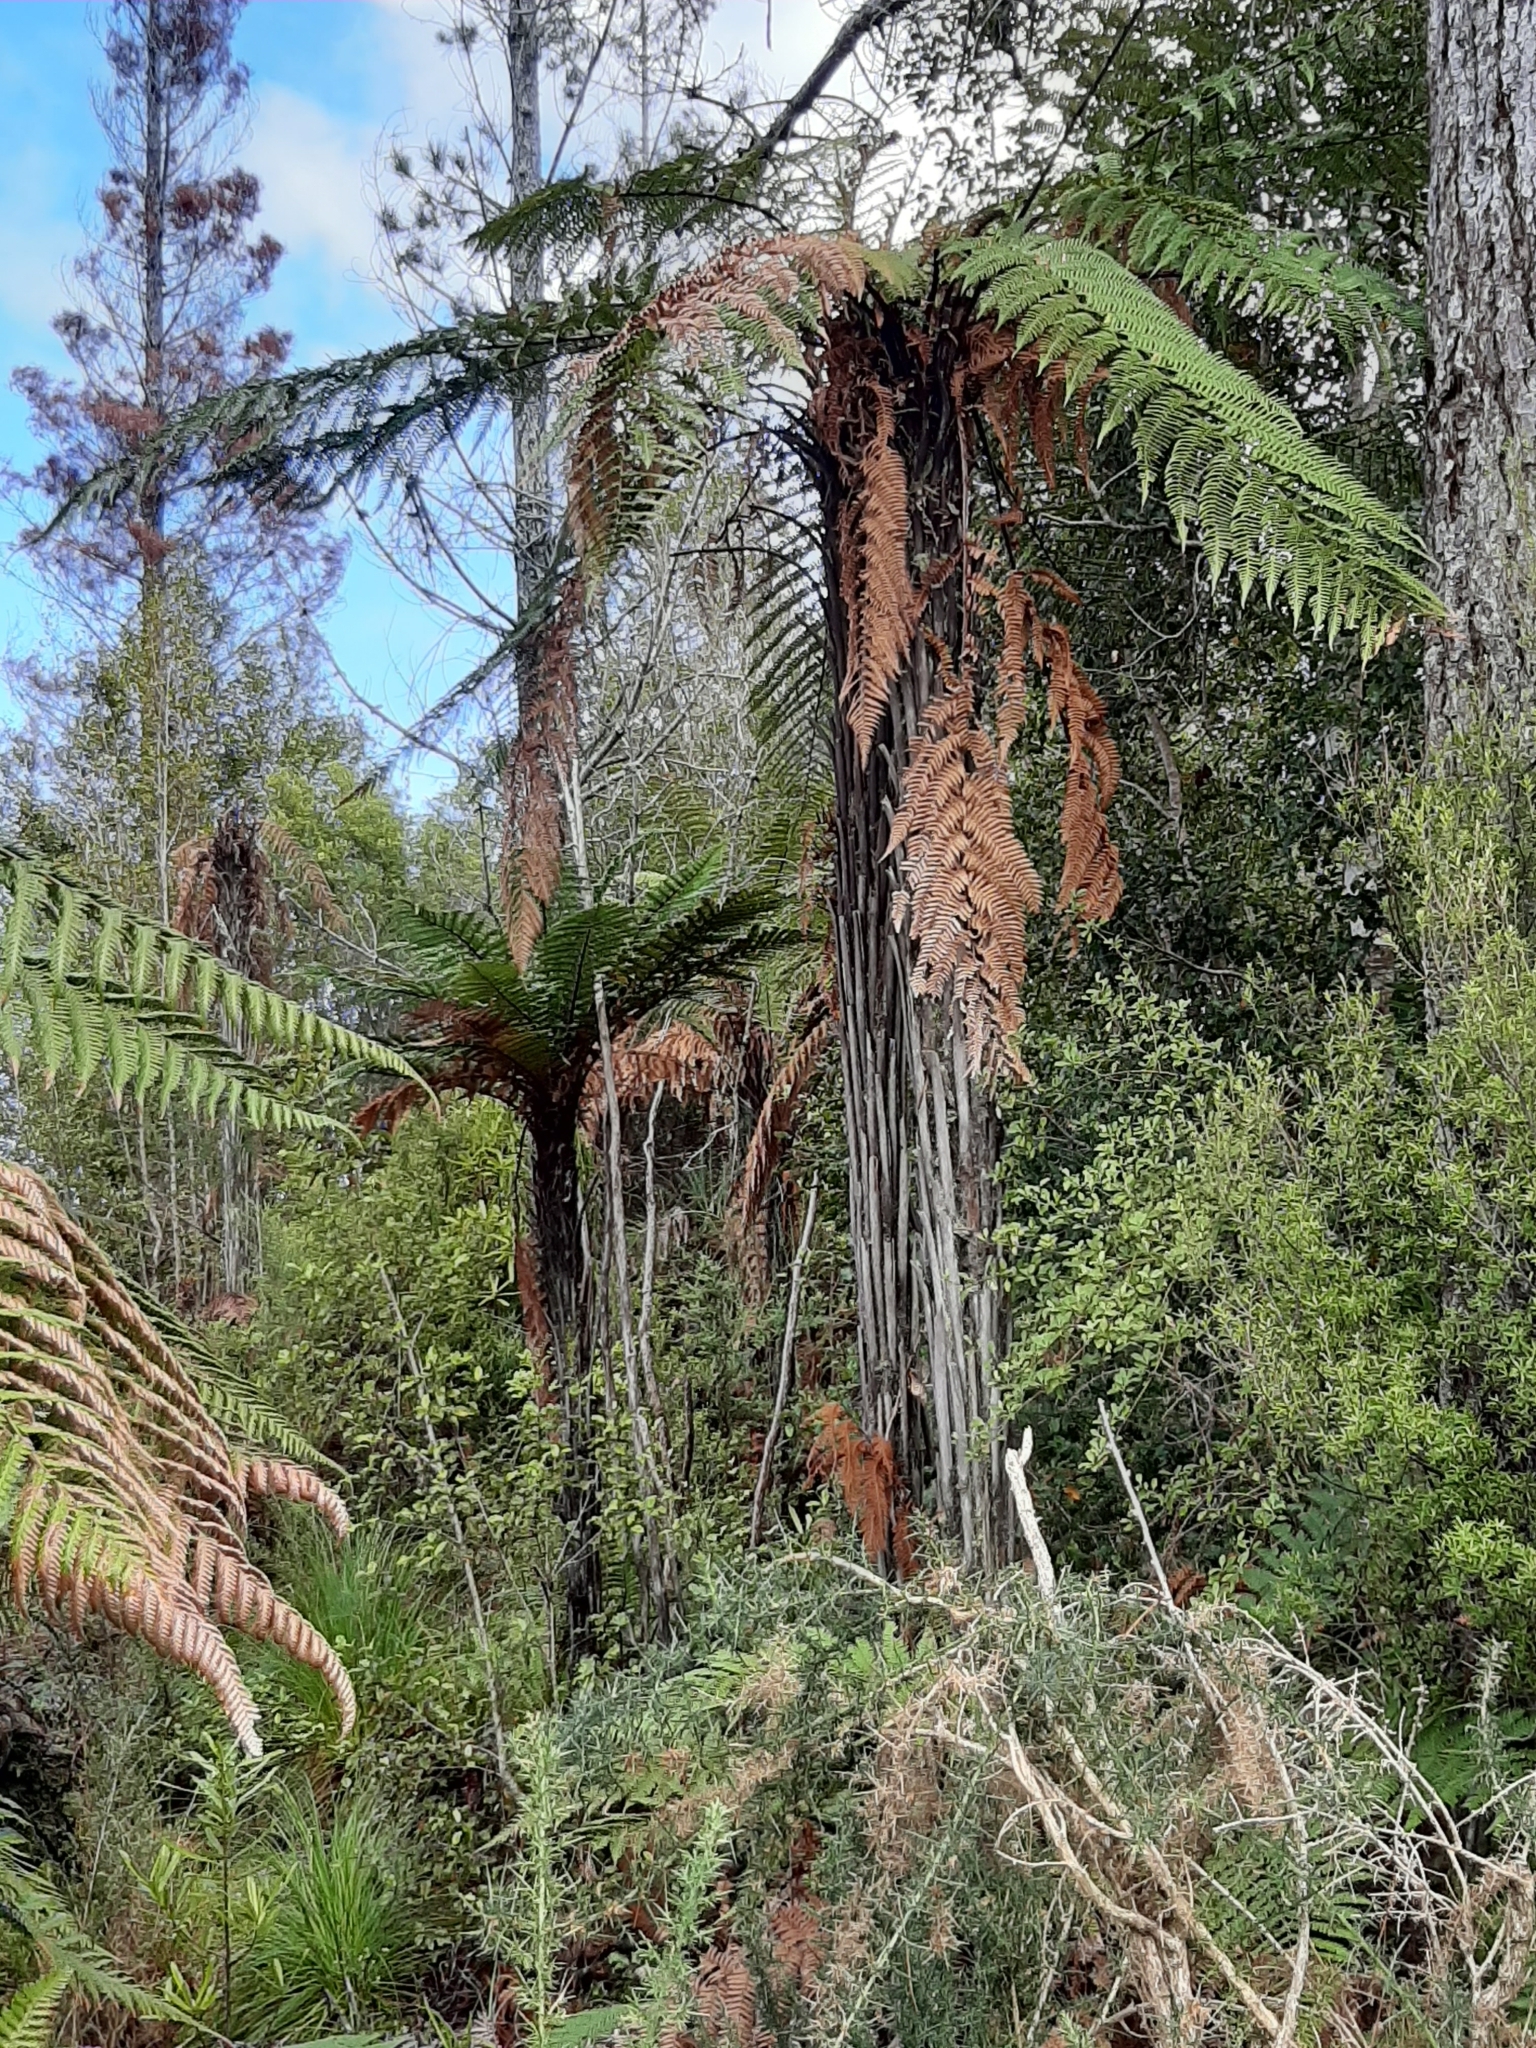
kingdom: Plantae
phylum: Tracheophyta
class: Polypodiopsida
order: Cyatheales
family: Dicksoniaceae
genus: Dicksonia
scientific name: Dicksonia squarrosa
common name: Hard treefern
